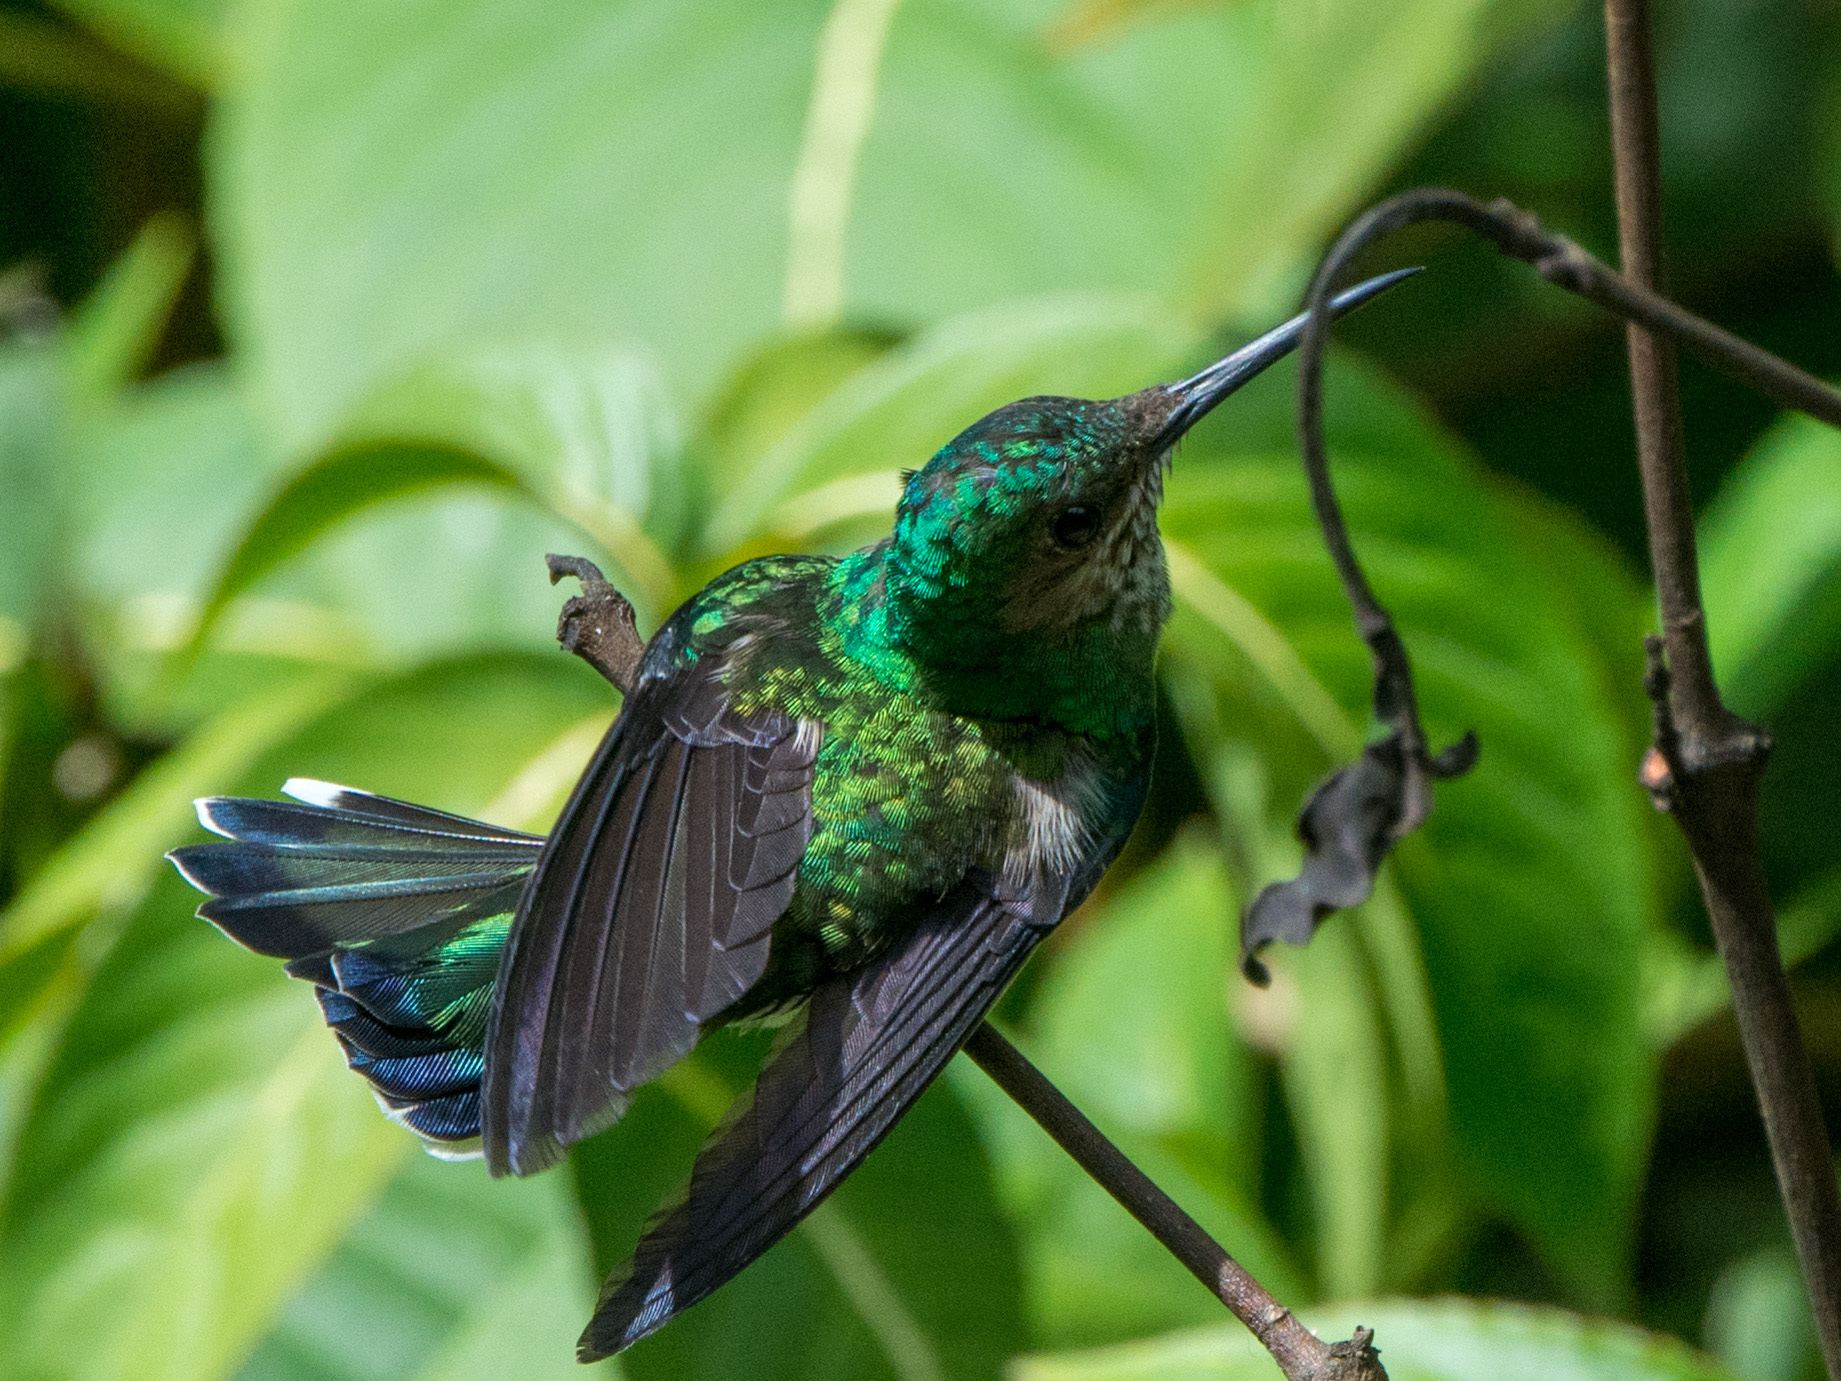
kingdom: Animalia
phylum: Chordata
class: Aves
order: Apodiformes
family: Trochilidae
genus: Florisuga
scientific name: Florisuga mellivora
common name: White-necked jacobin
